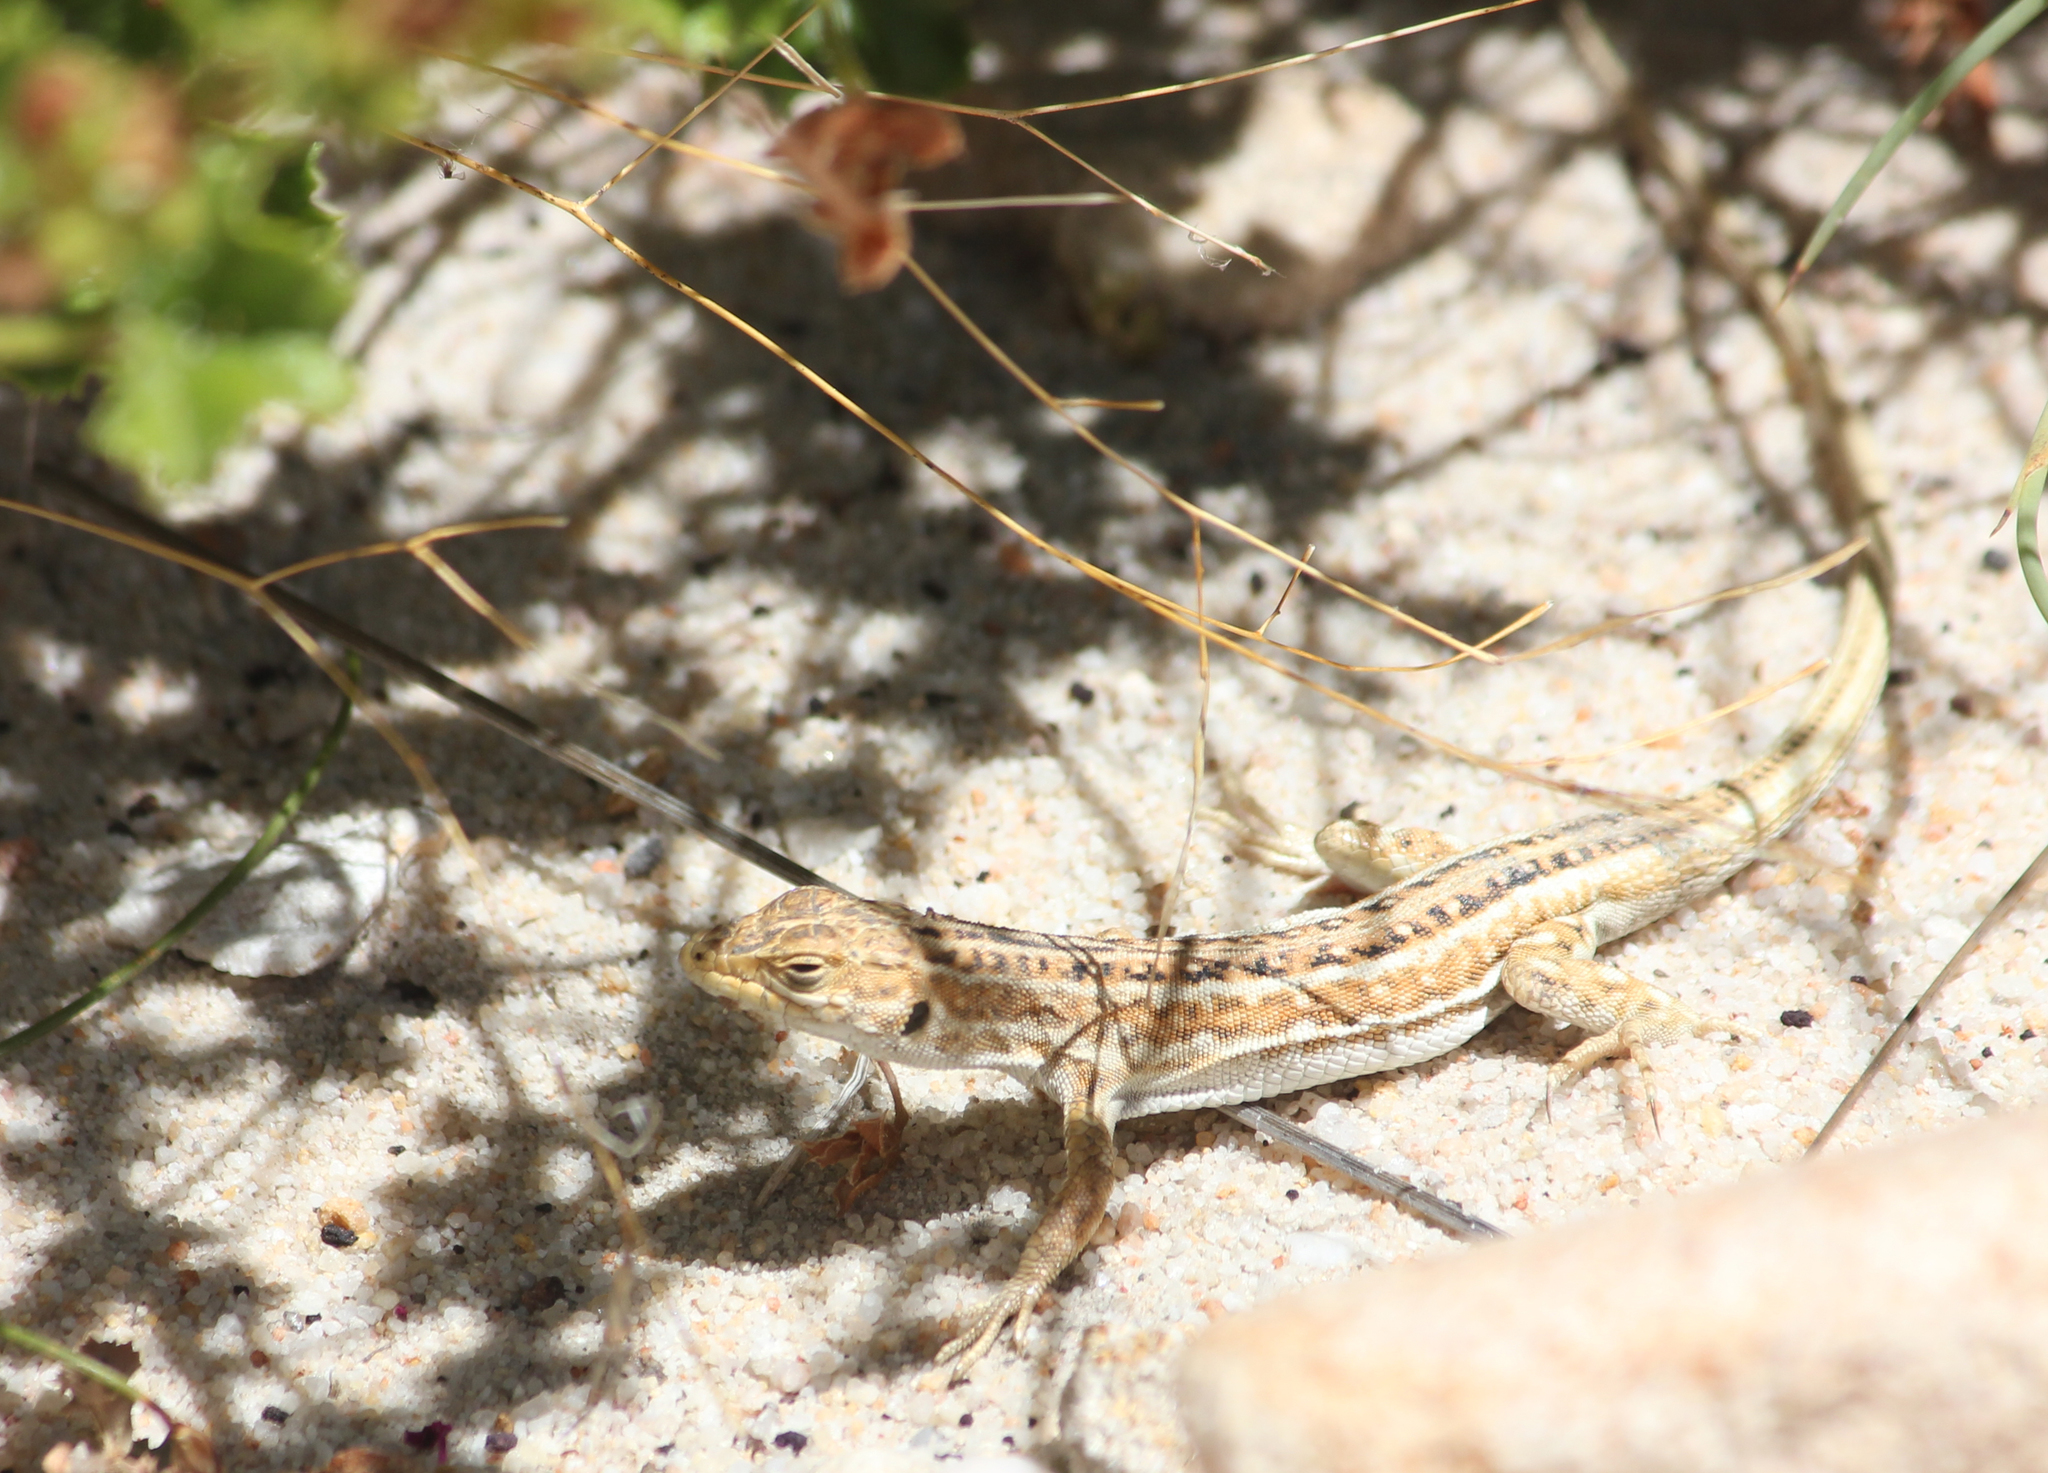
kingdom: Animalia
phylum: Chordata
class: Squamata
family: Lacertidae
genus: Meroles
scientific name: Meroles knoxii
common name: Knox's desert lizard
